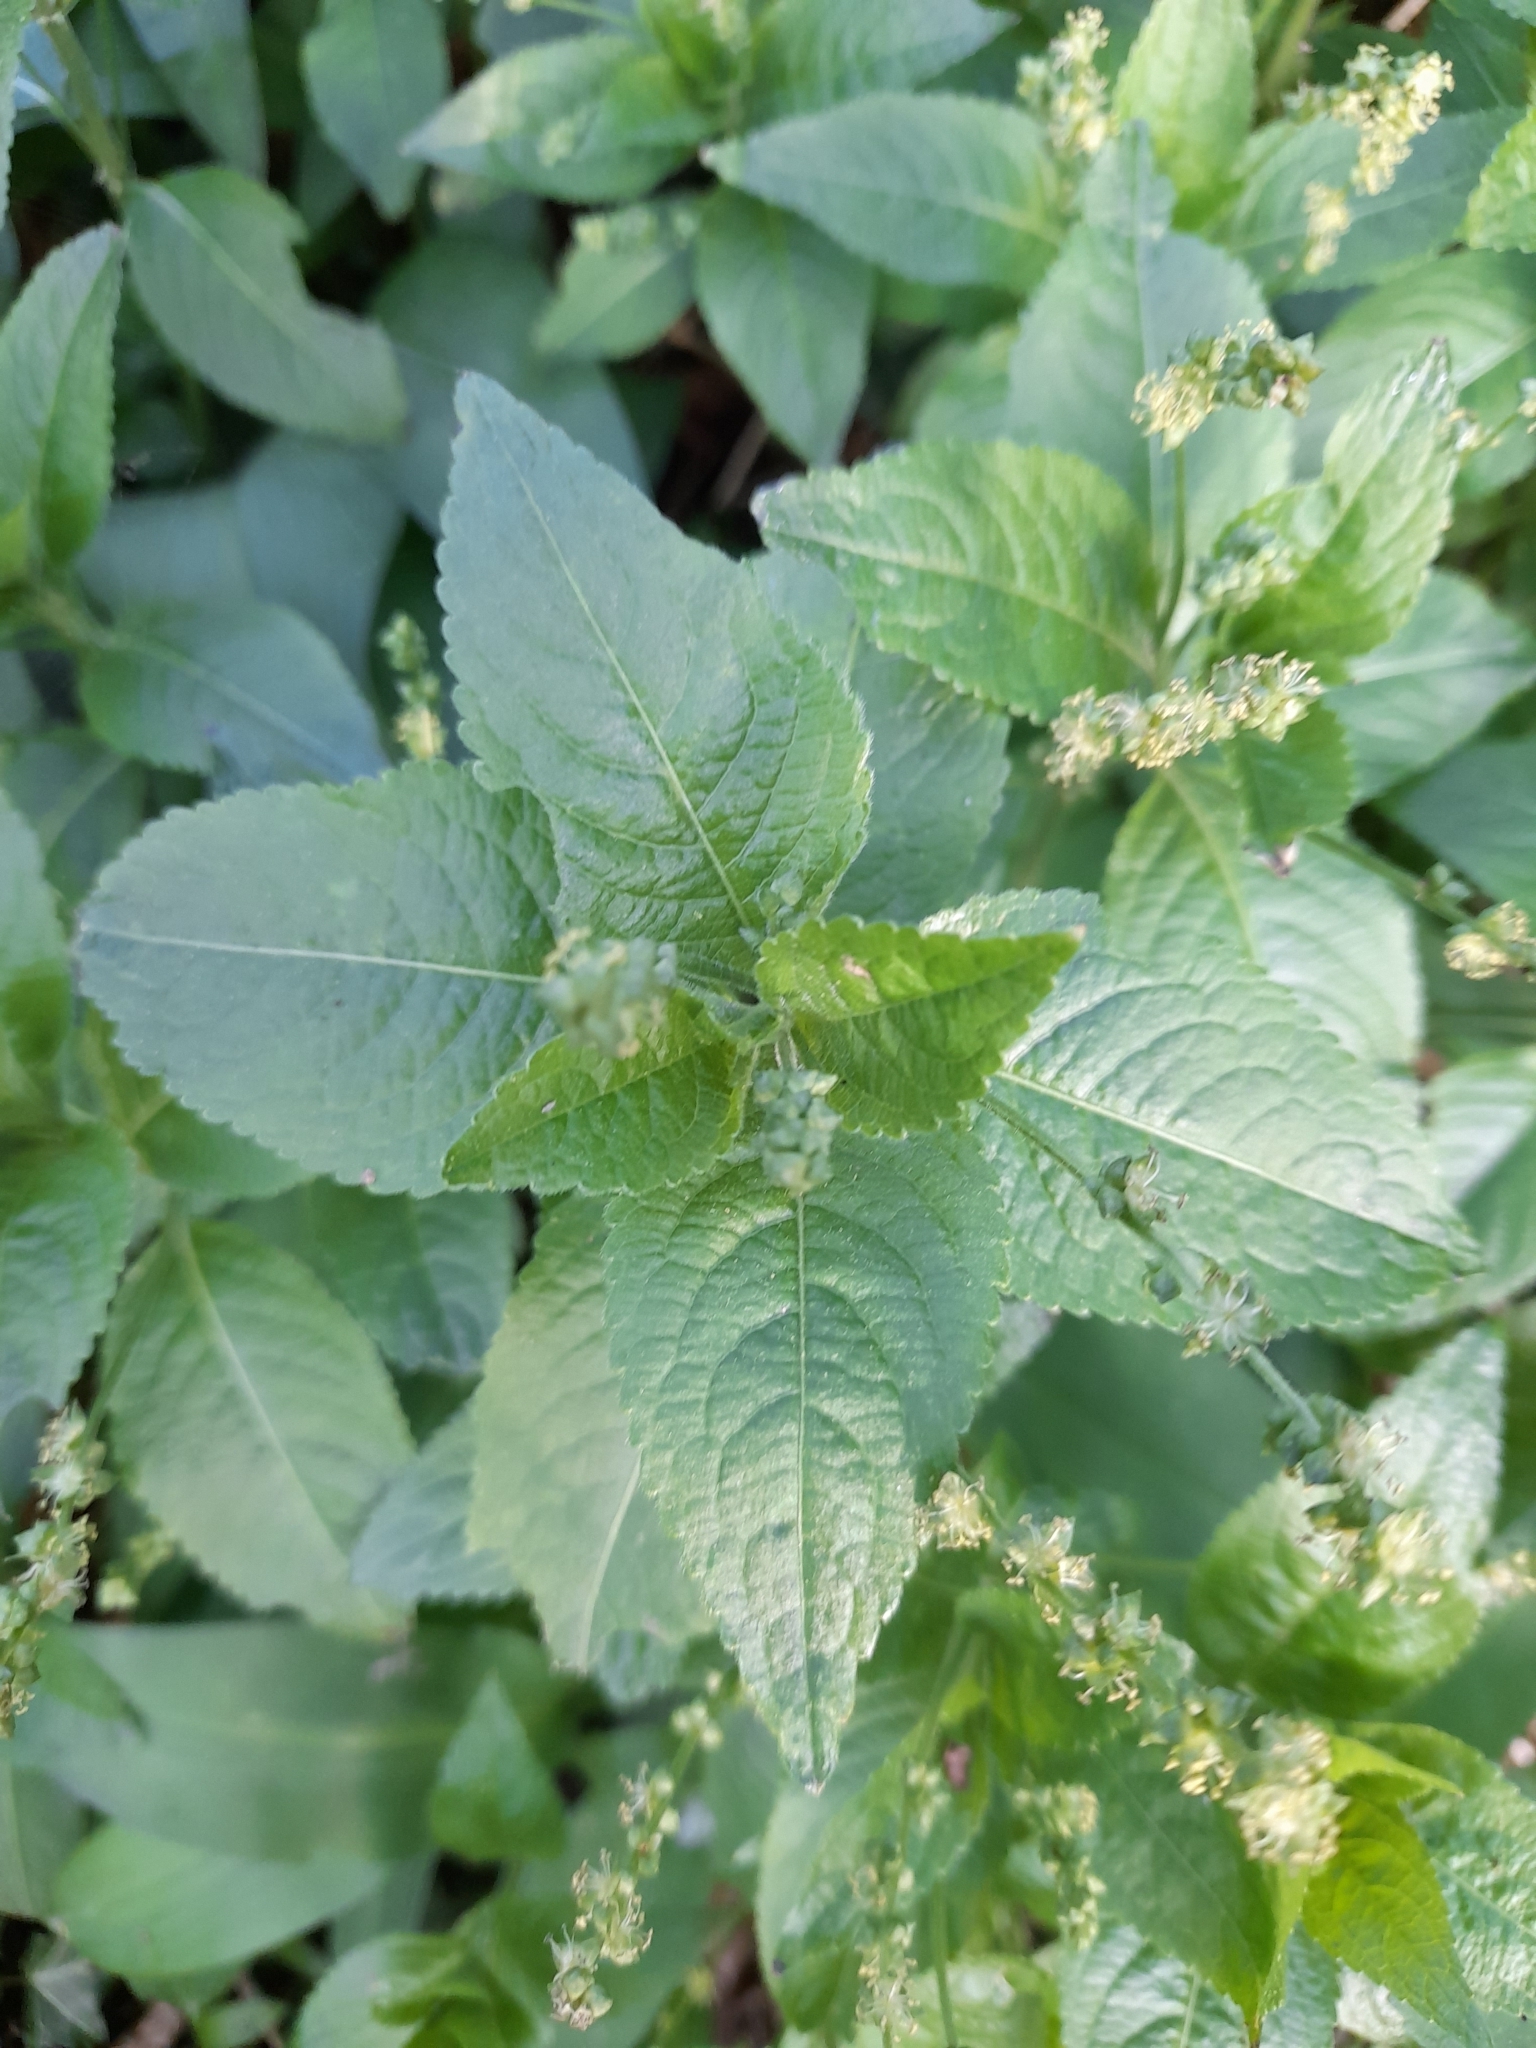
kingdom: Plantae
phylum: Tracheophyta
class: Magnoliopsida
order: Malpighiales
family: Euphorbiaceae
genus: Mercurialis
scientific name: Mercurialis perennis
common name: Dog mercury
